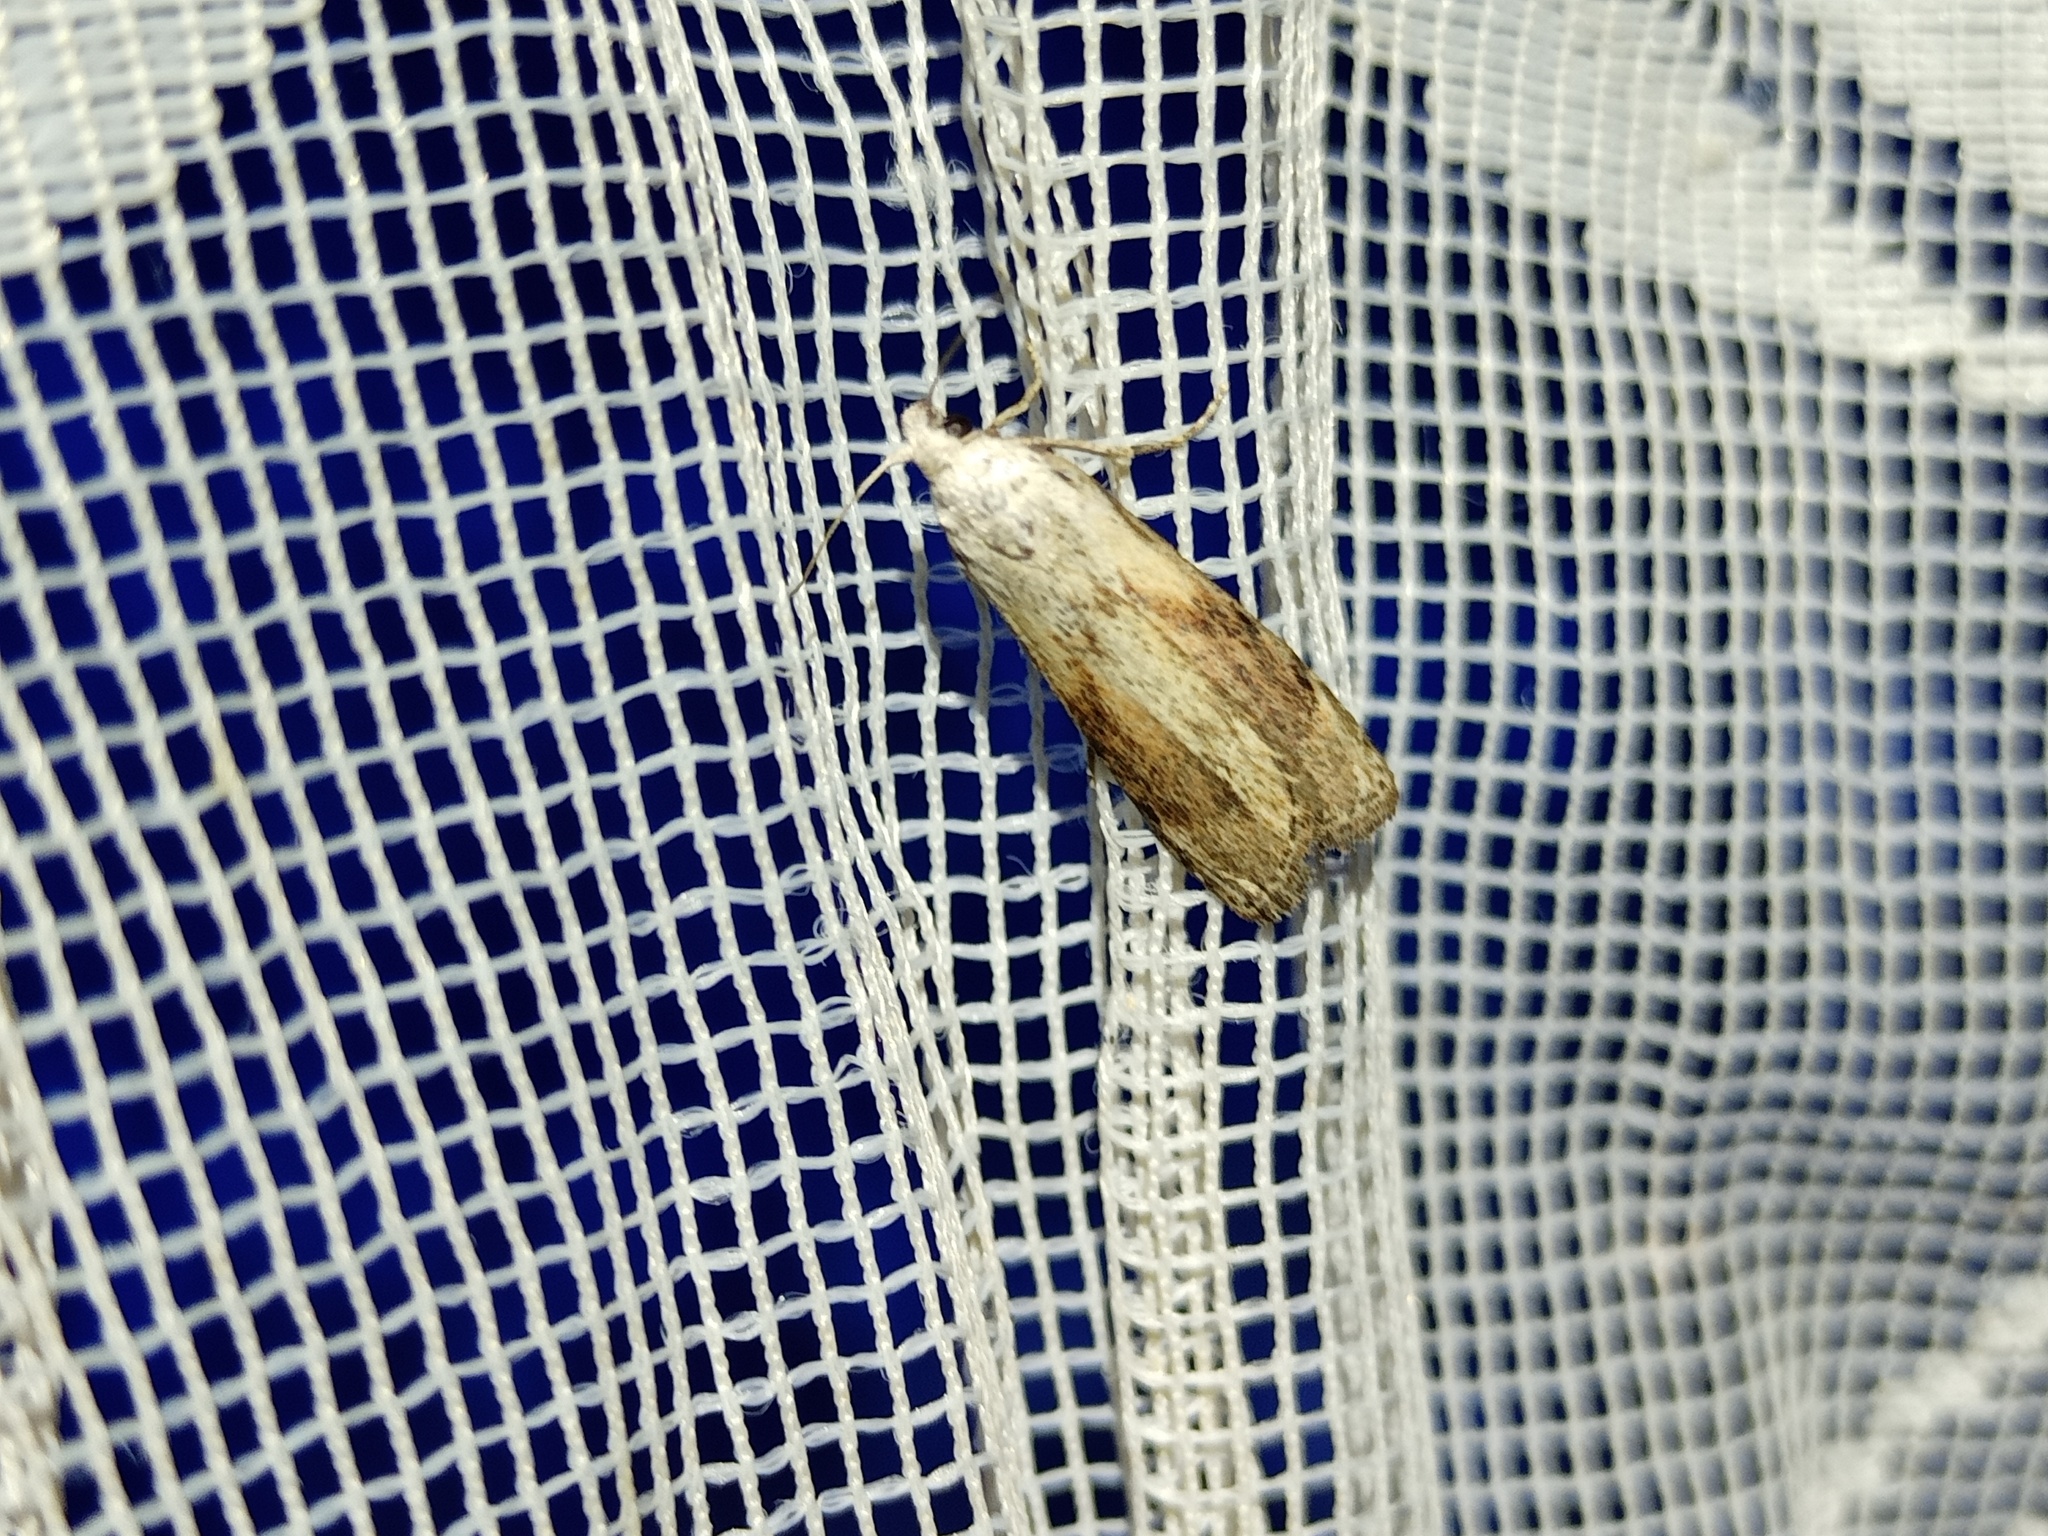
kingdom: Animalia
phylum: Arthropoda
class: Insecta
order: Lepidoptera
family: Pyralidae
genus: Aphomia
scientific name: Aphomia sociella
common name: Bee moth
